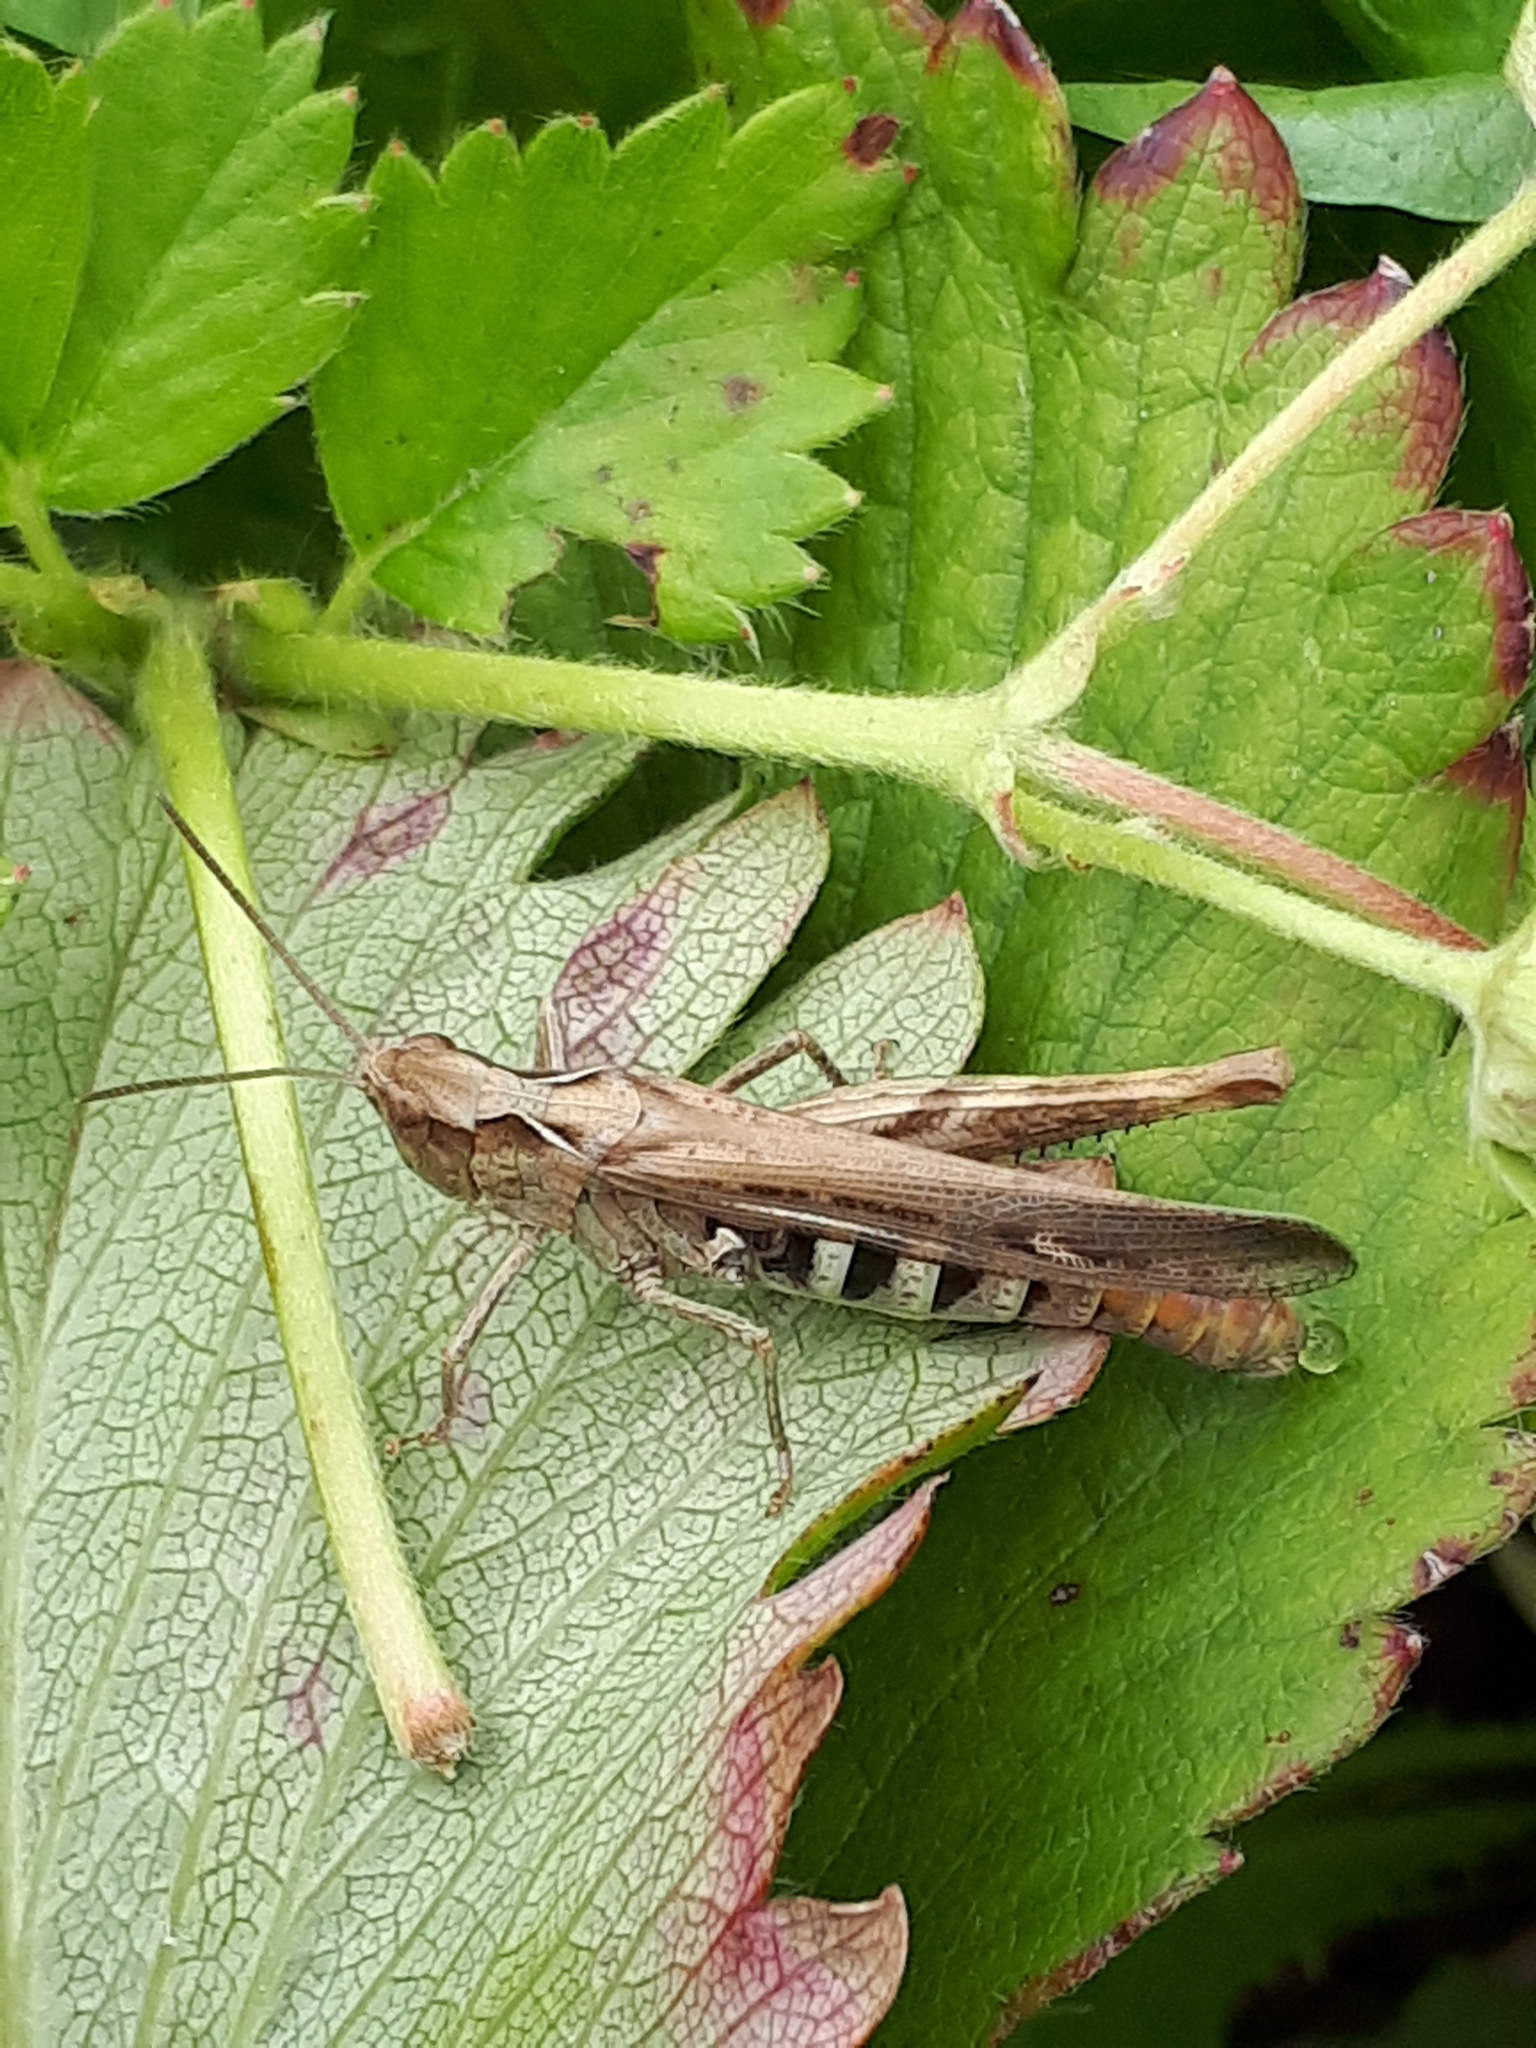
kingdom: Animalia
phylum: Arthropoda
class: Insecta
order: Orthoptera
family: Acrididae
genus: Chorthippus
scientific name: Chorthippus brunneus
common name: Field grasshopper
